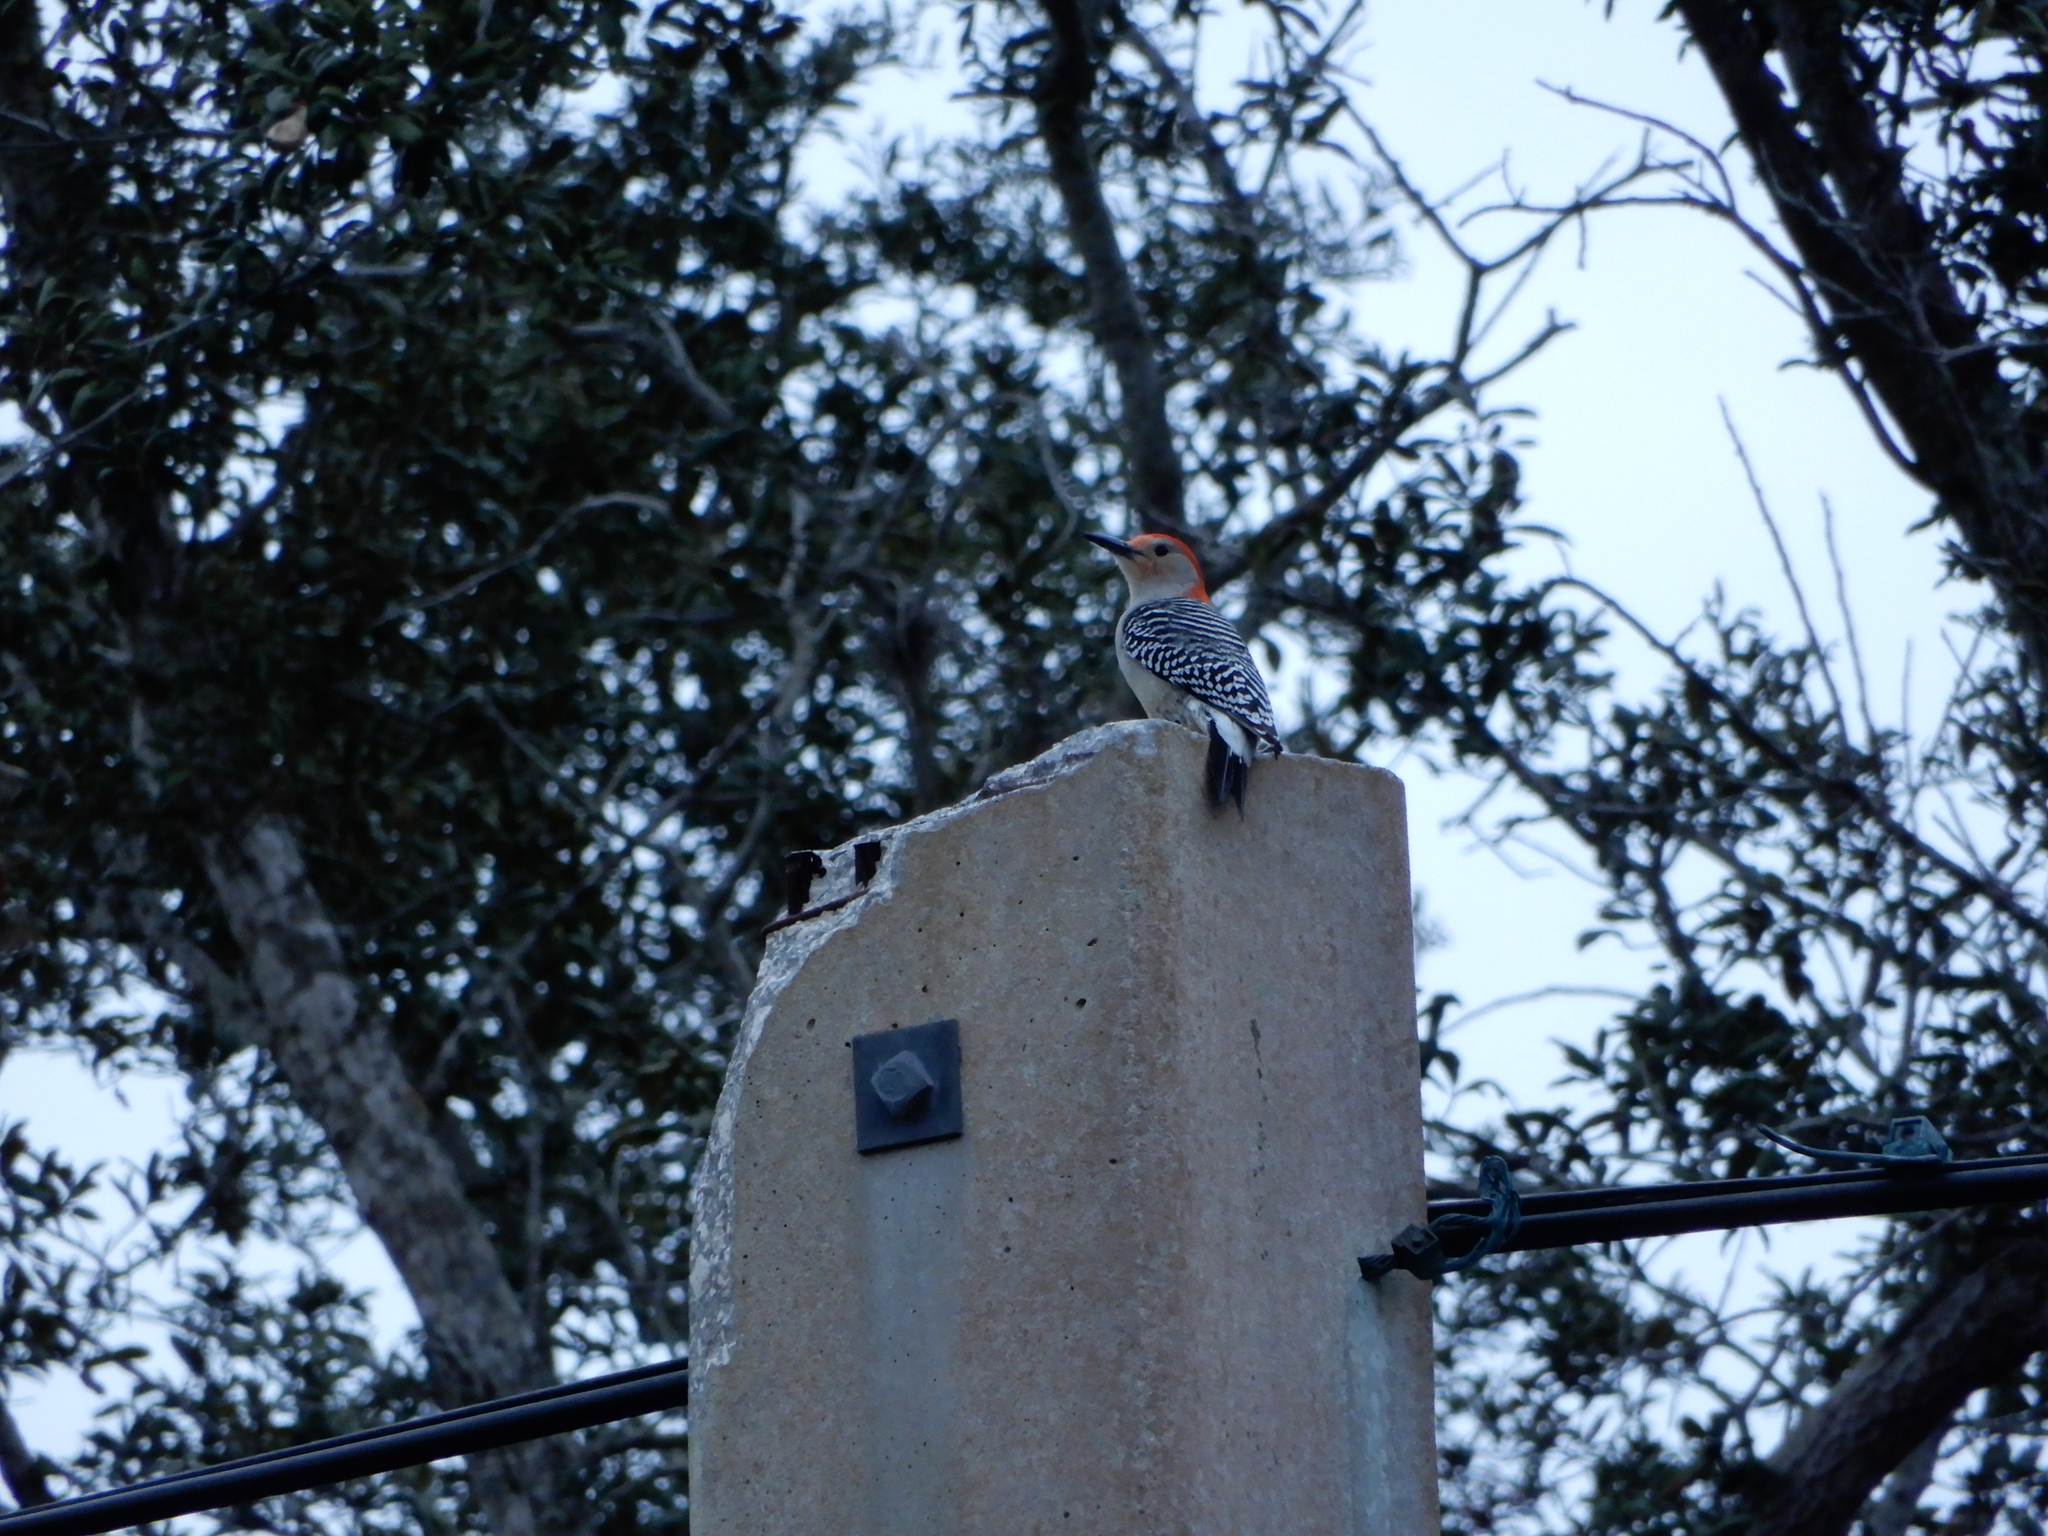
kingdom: Animalia
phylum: Chordata
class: Aves
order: Piciformes
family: Picidae
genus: Melanerpes
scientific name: Melanerpes carolinus
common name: Red-bellied woodpecker
